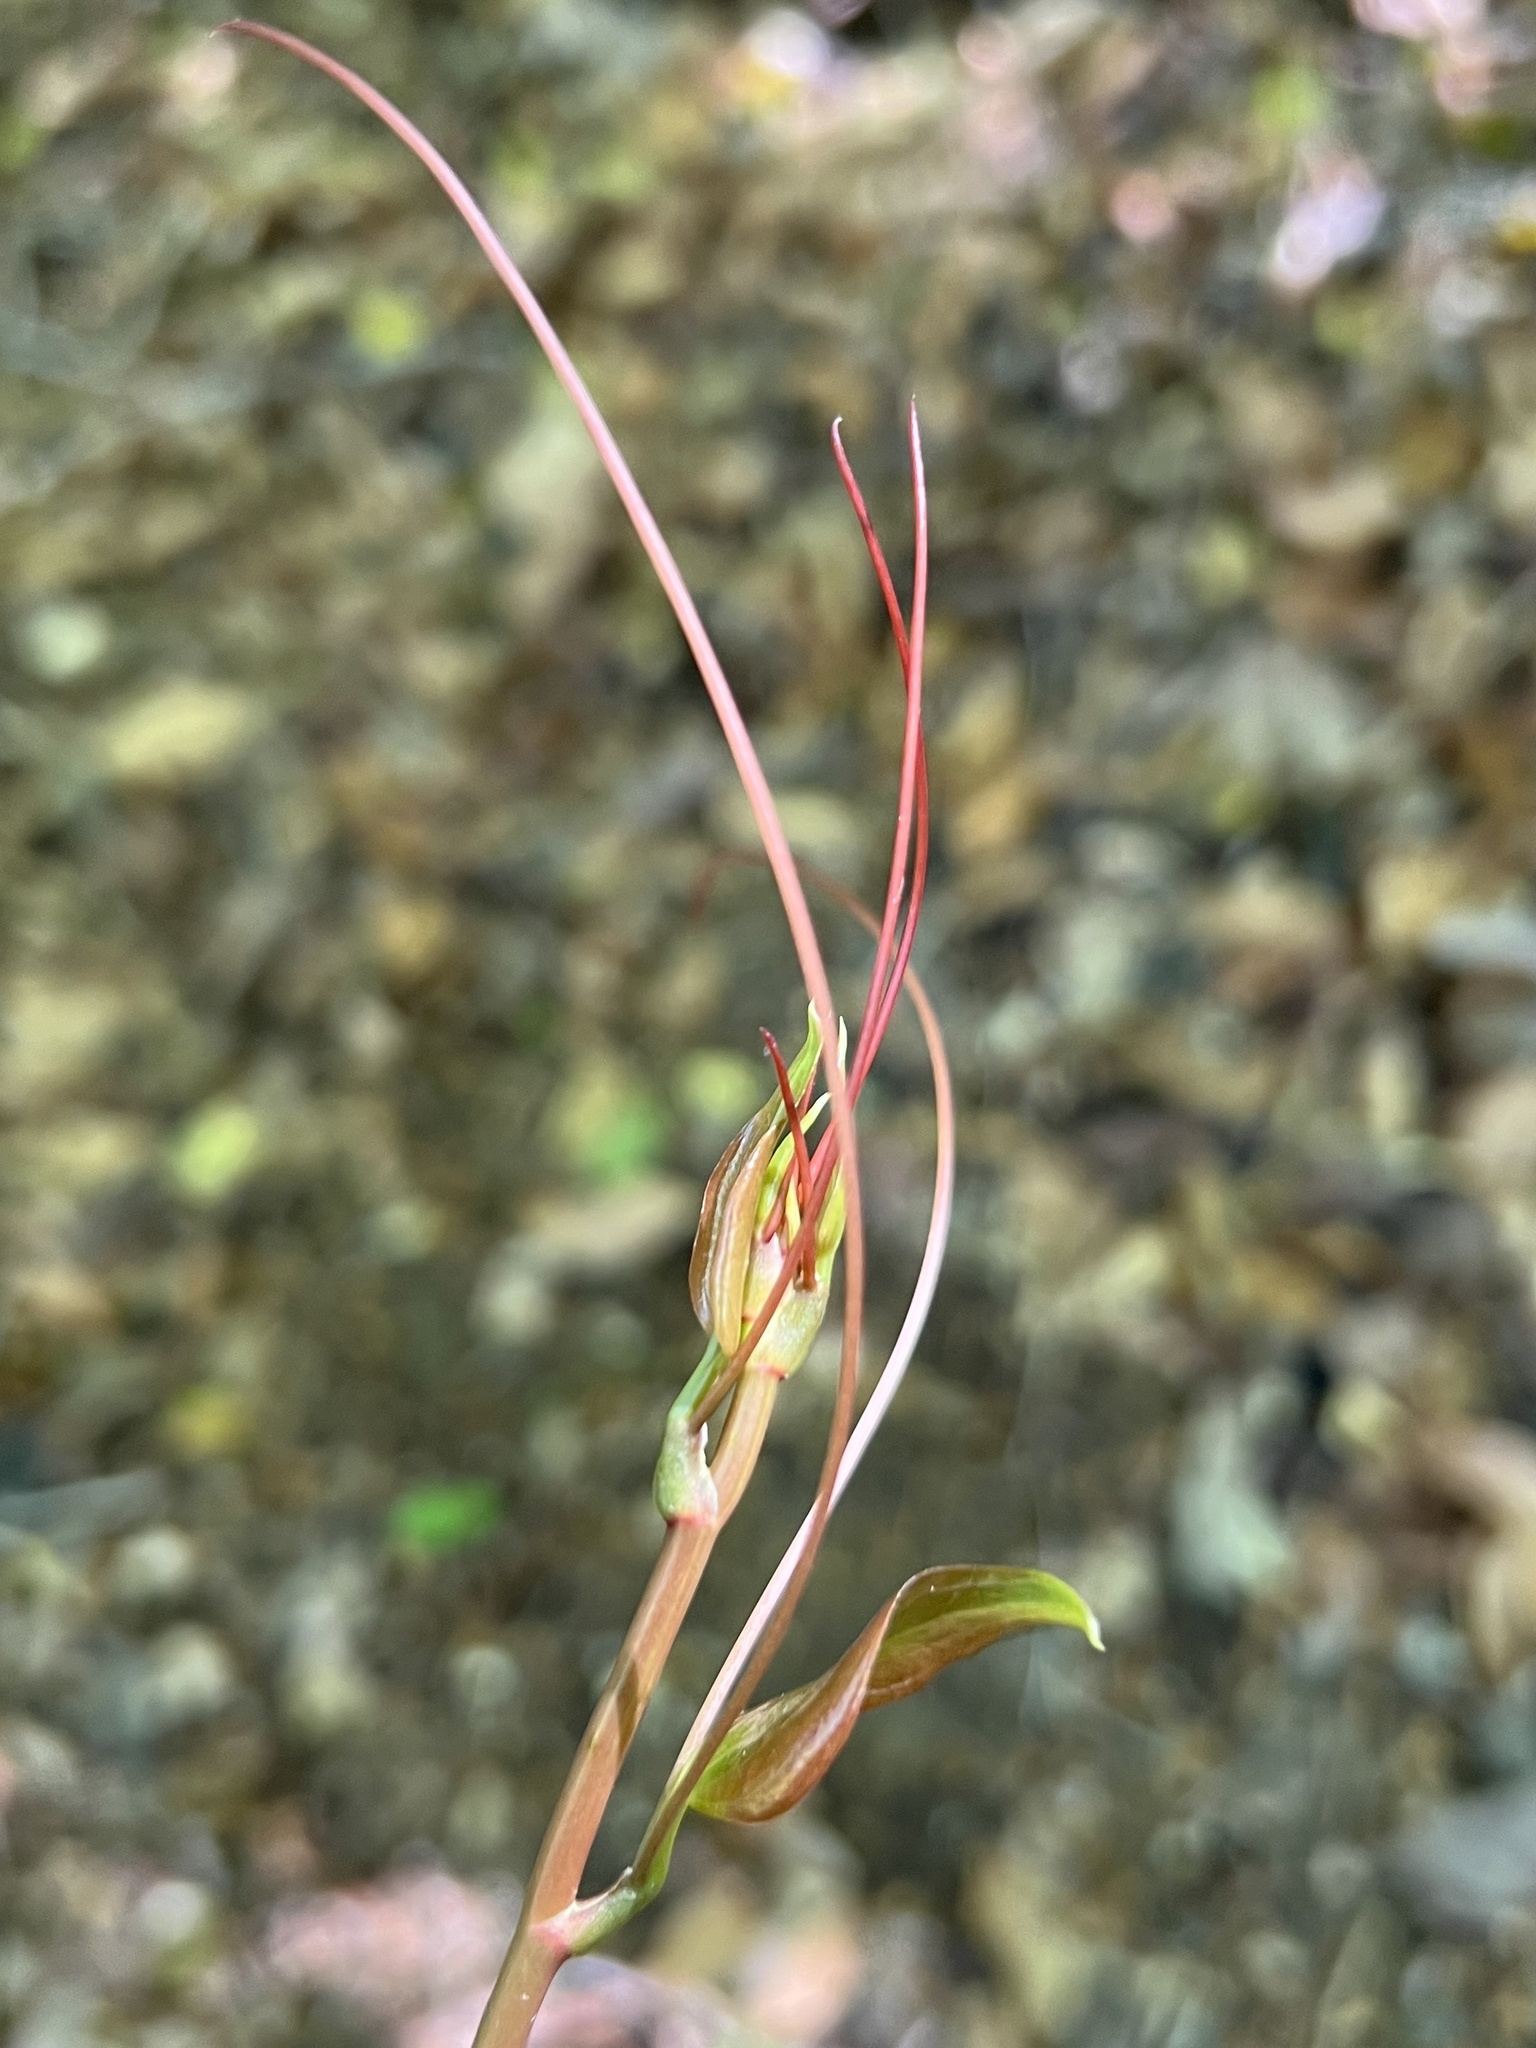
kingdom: Plantae
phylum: Tracheophyta
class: Liliopsida
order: Liliales
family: Smilacaceae
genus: Smilax
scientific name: Smilax rotundifolia
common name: Bullbriar
